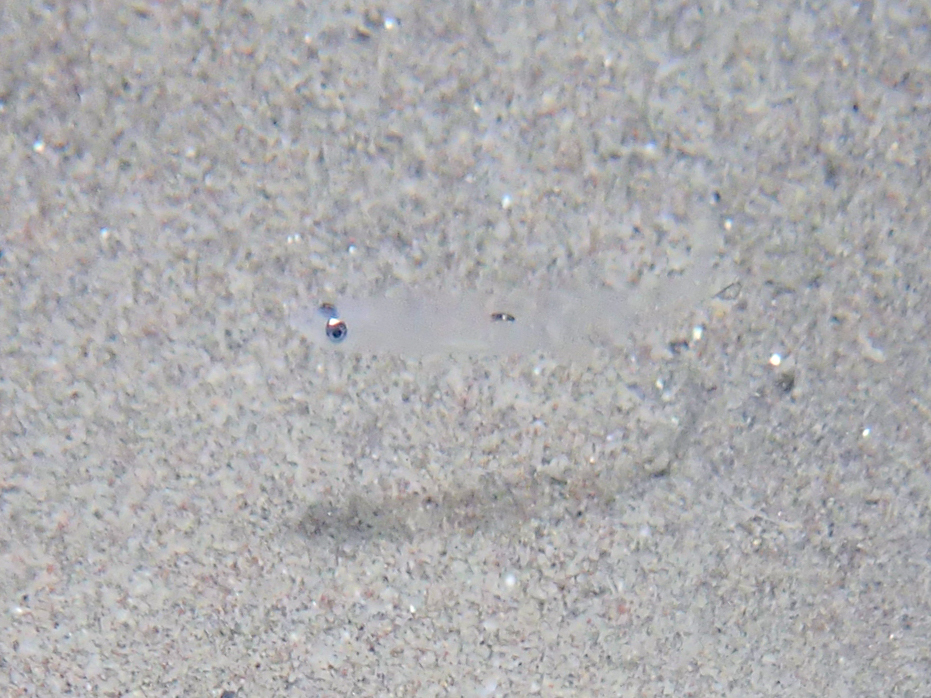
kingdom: Animalia
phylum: Chordata
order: Perciformes
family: Gobiidae
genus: Aphia
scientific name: Aphia minuta
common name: Transparent goby
